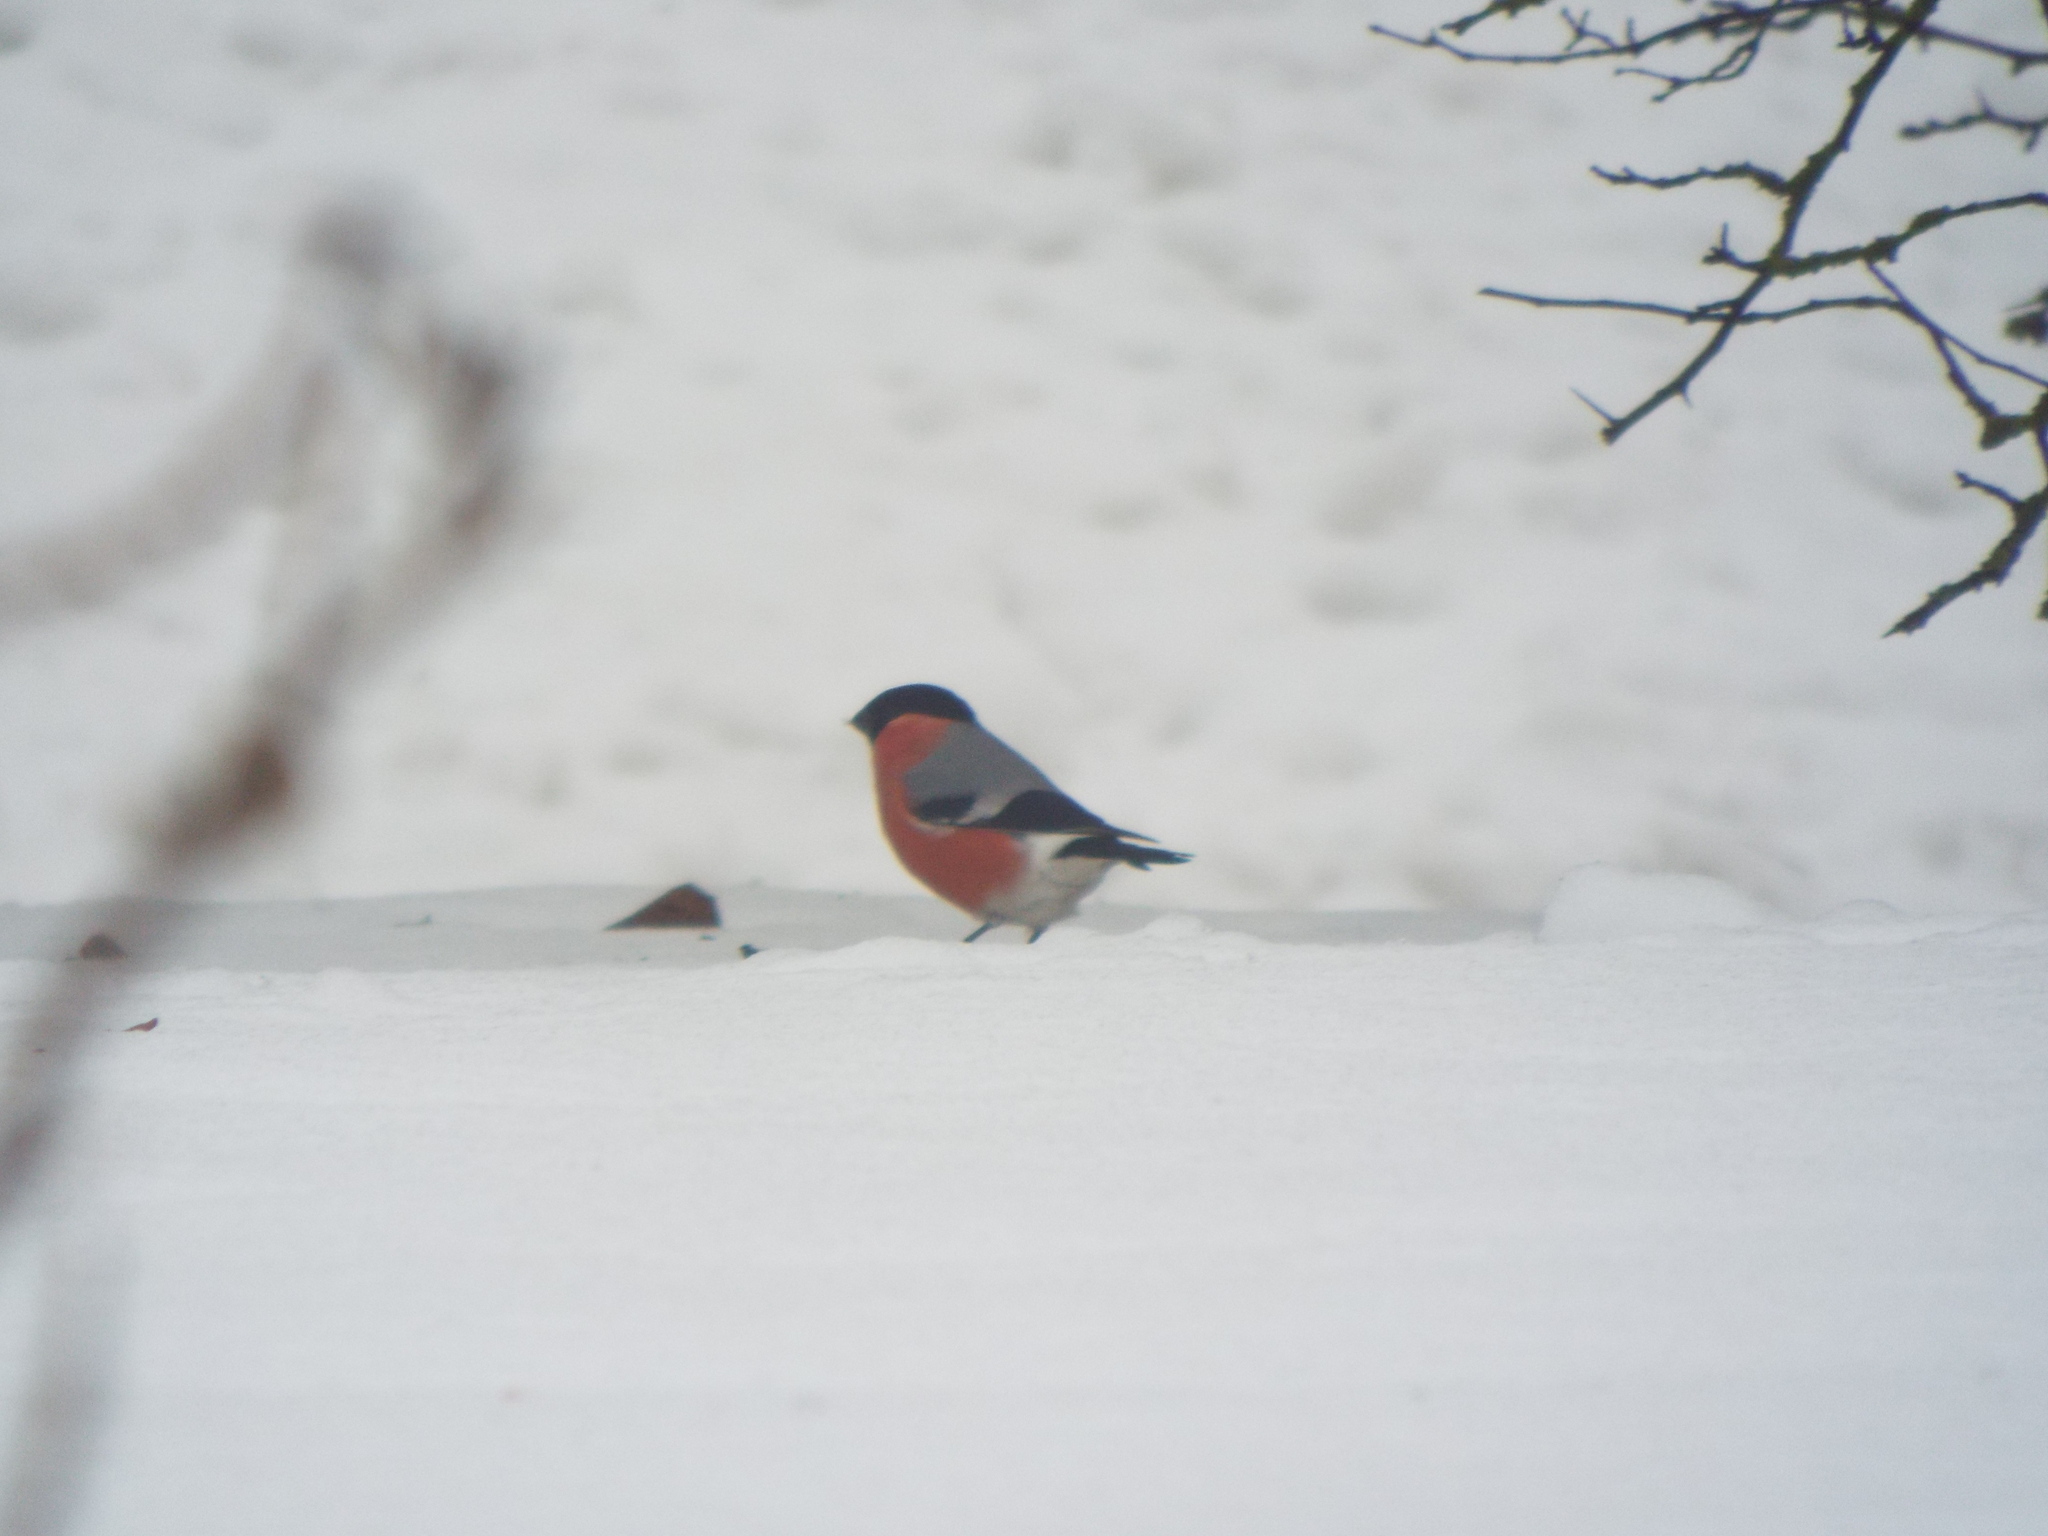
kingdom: Animalia
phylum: Chordata
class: Aves
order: Passeriformes
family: Fringillidae
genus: Pyrrhula
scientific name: Pyrrhula pyrrhula
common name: Eurasian bullfinch
